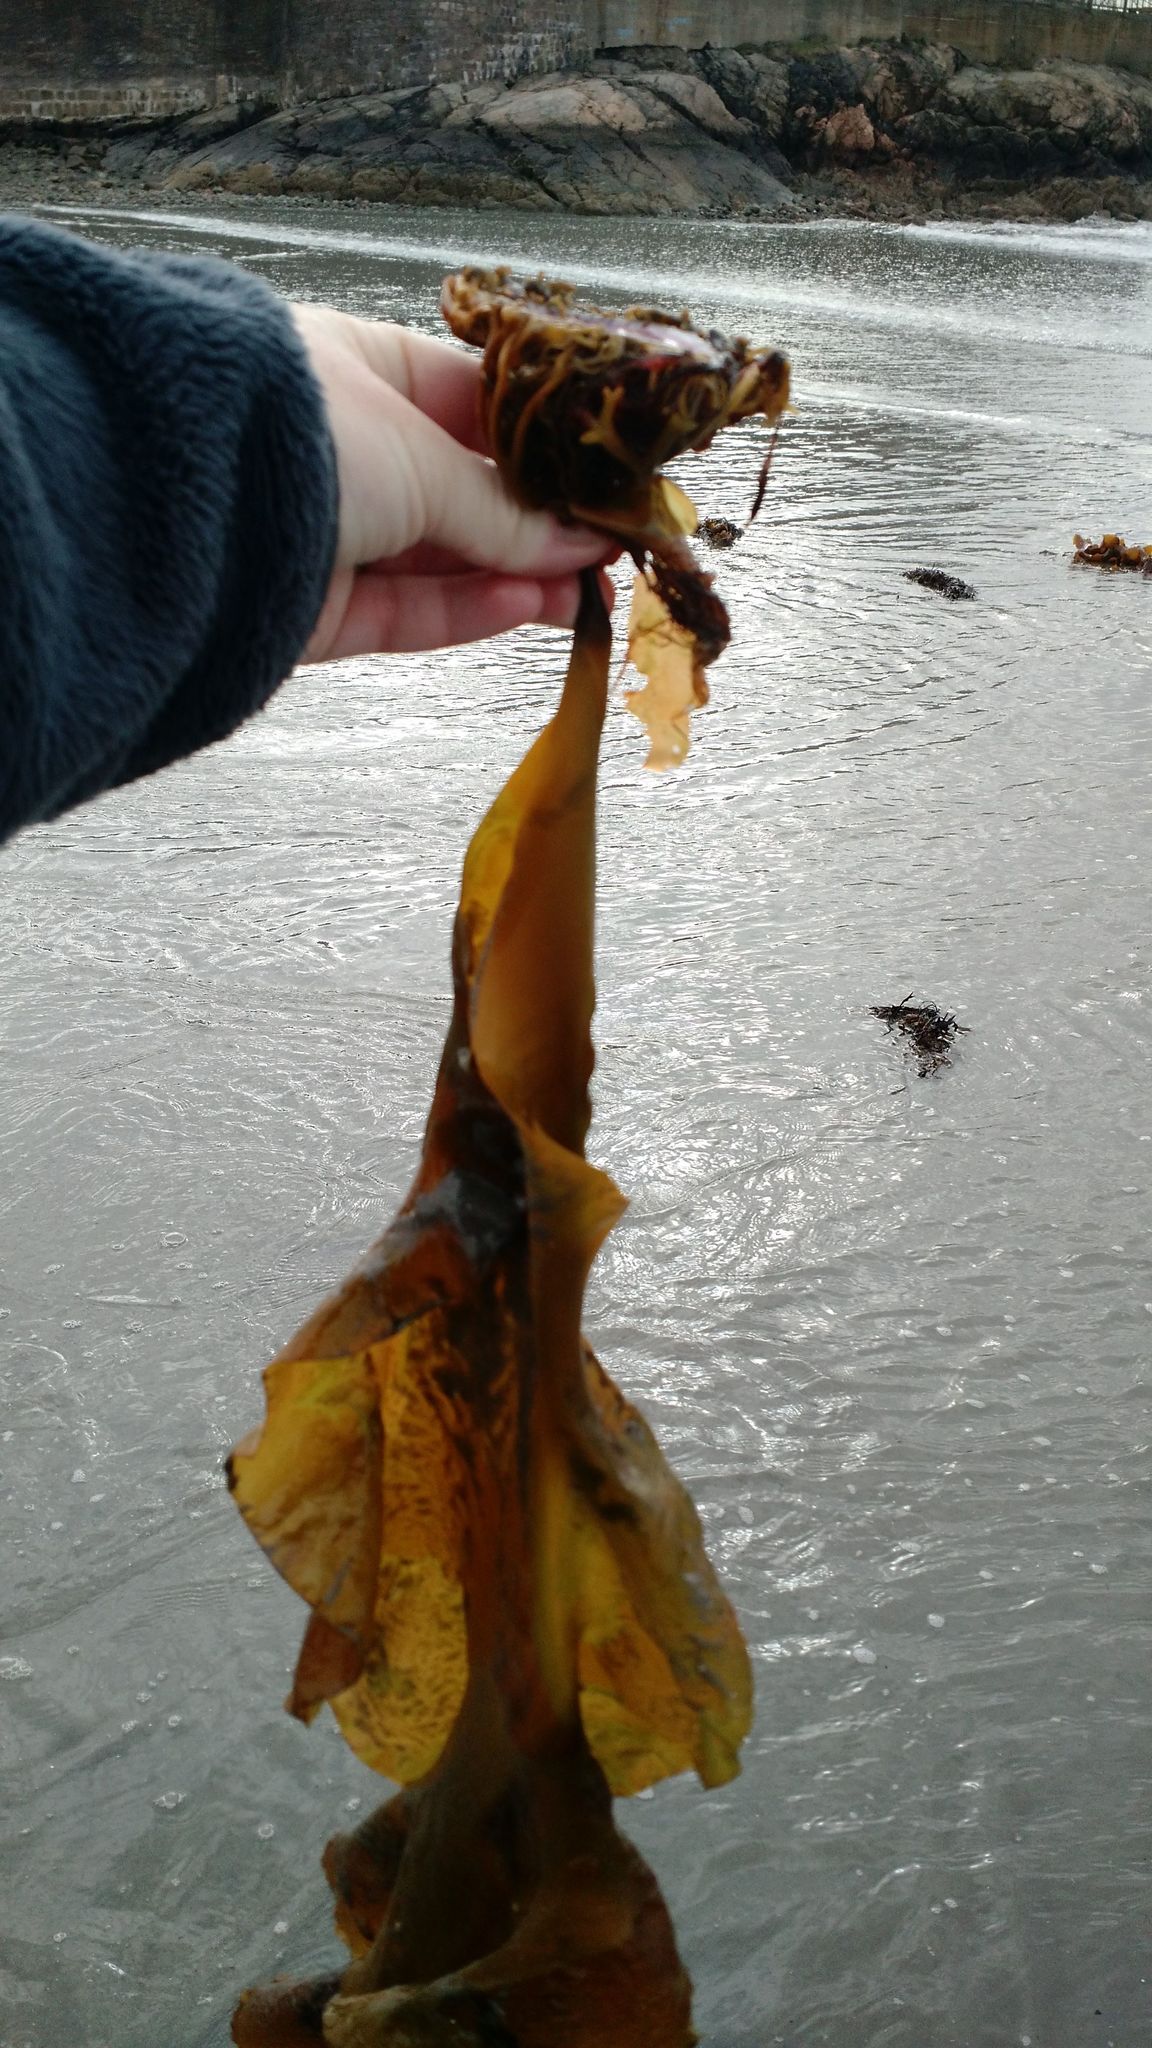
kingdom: Chromista
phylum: Ochrophyta
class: Phaeophyceae
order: Laminariales
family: Laminariaceae
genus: Saccharina
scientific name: Saccharina latissima
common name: Poor man's weather glass
